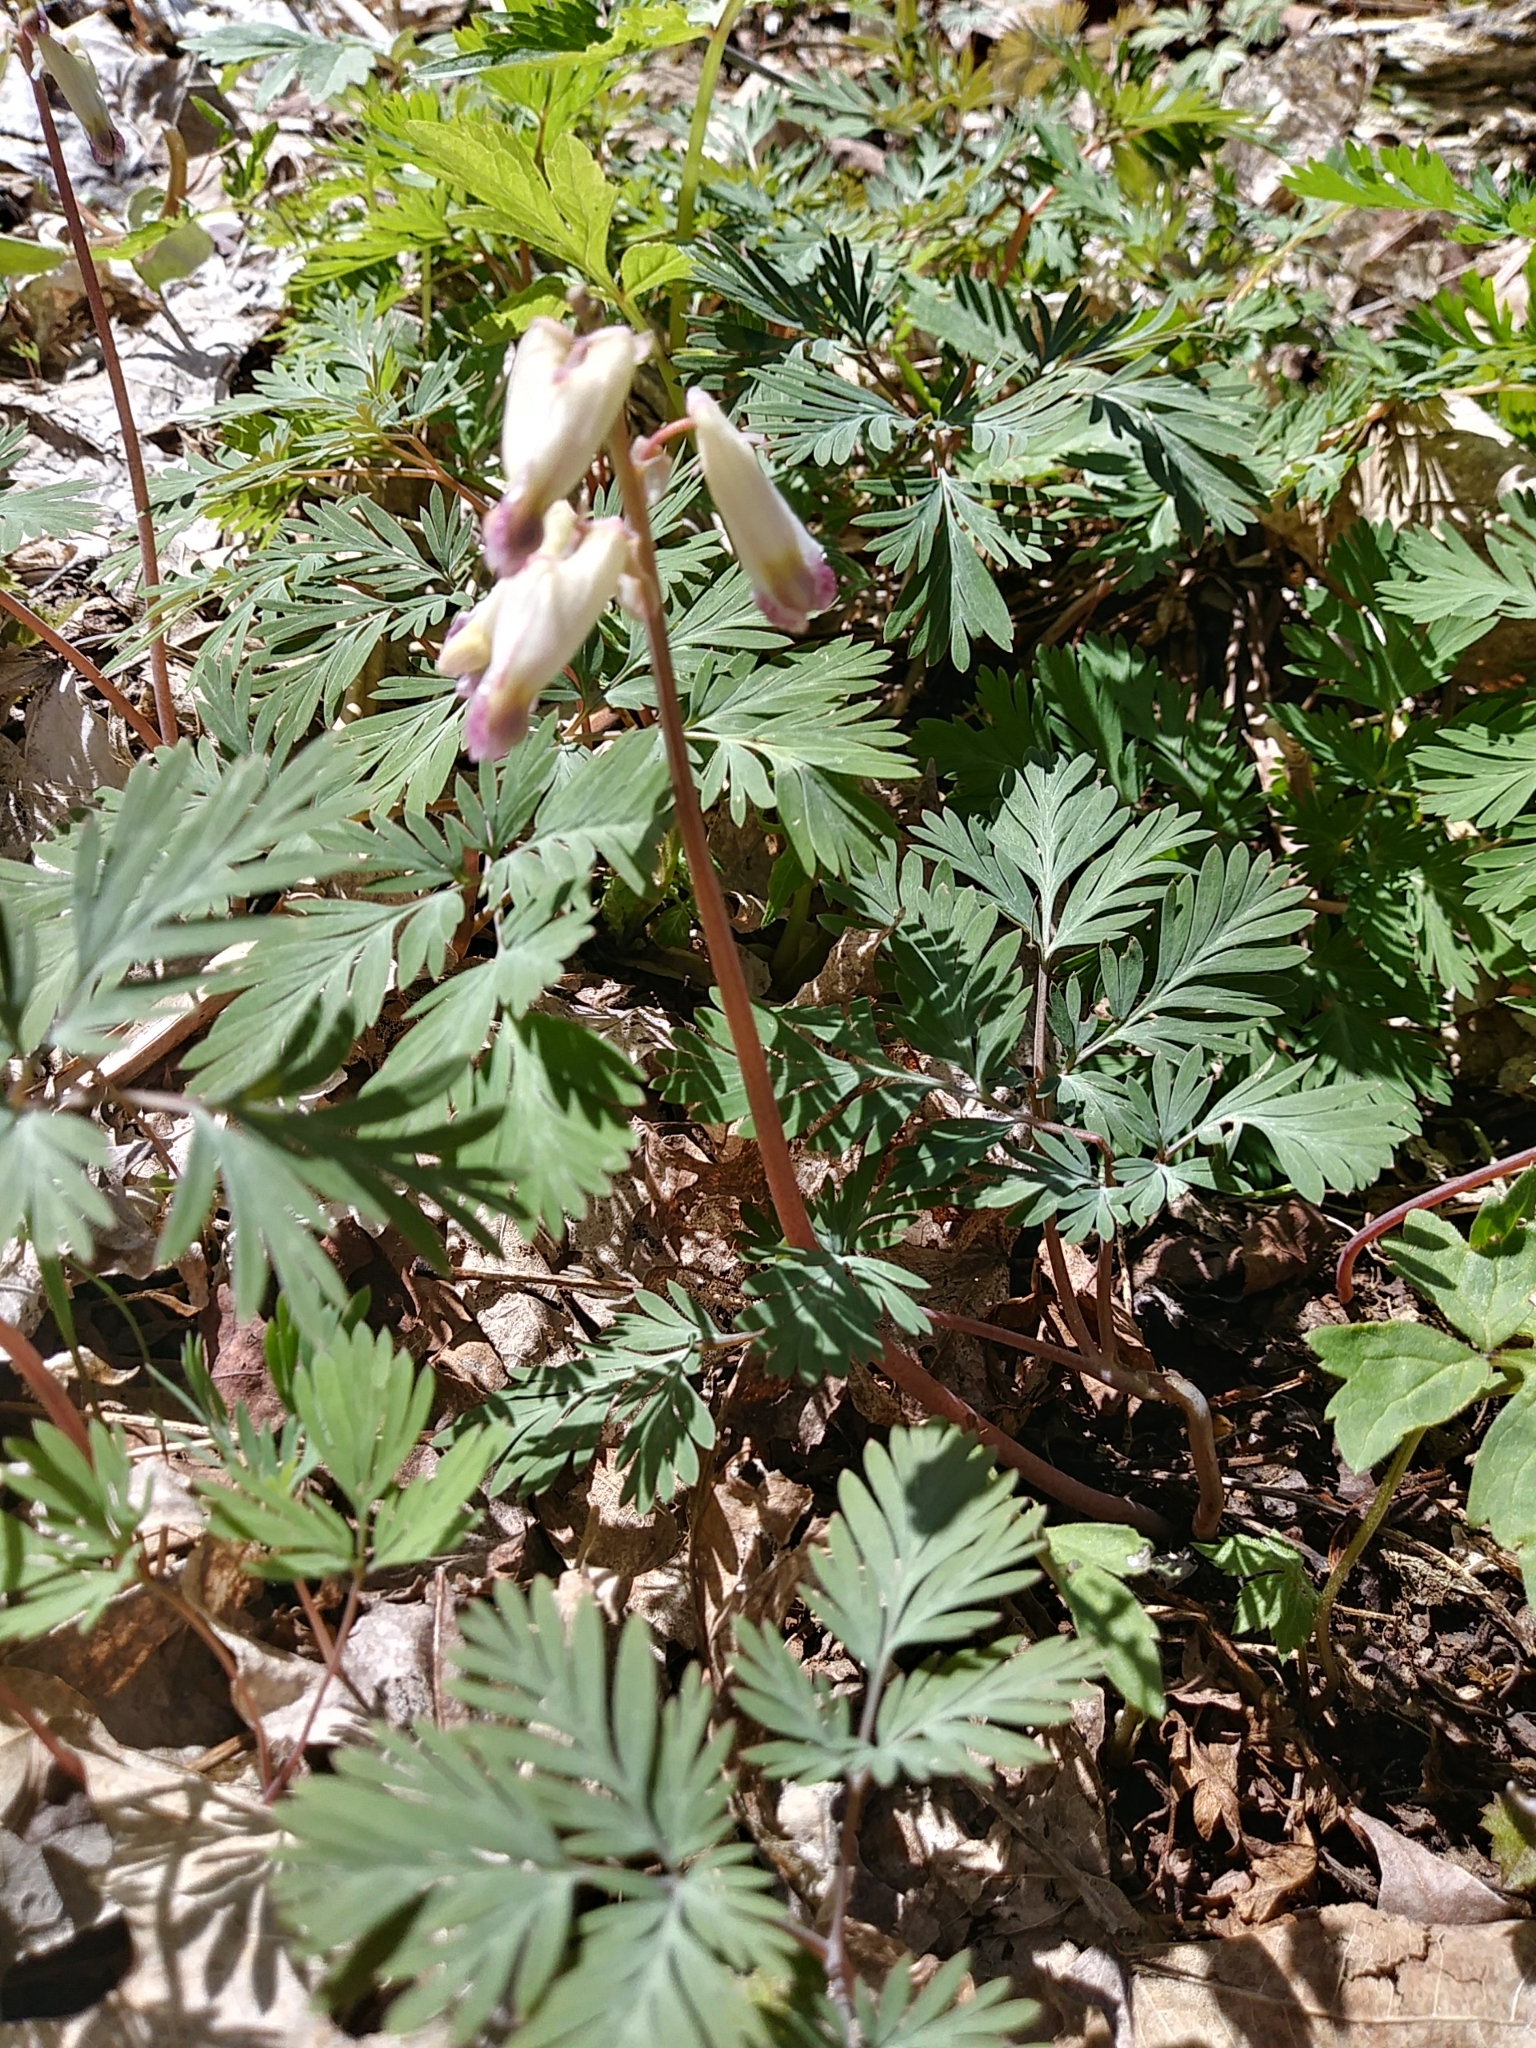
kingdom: Plantae
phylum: Tracheophyta
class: Magnoliopsida
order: Ranunculales
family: Papaveraceae
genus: Dicentra
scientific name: Dicentra canadensis
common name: Squirrel-corn
